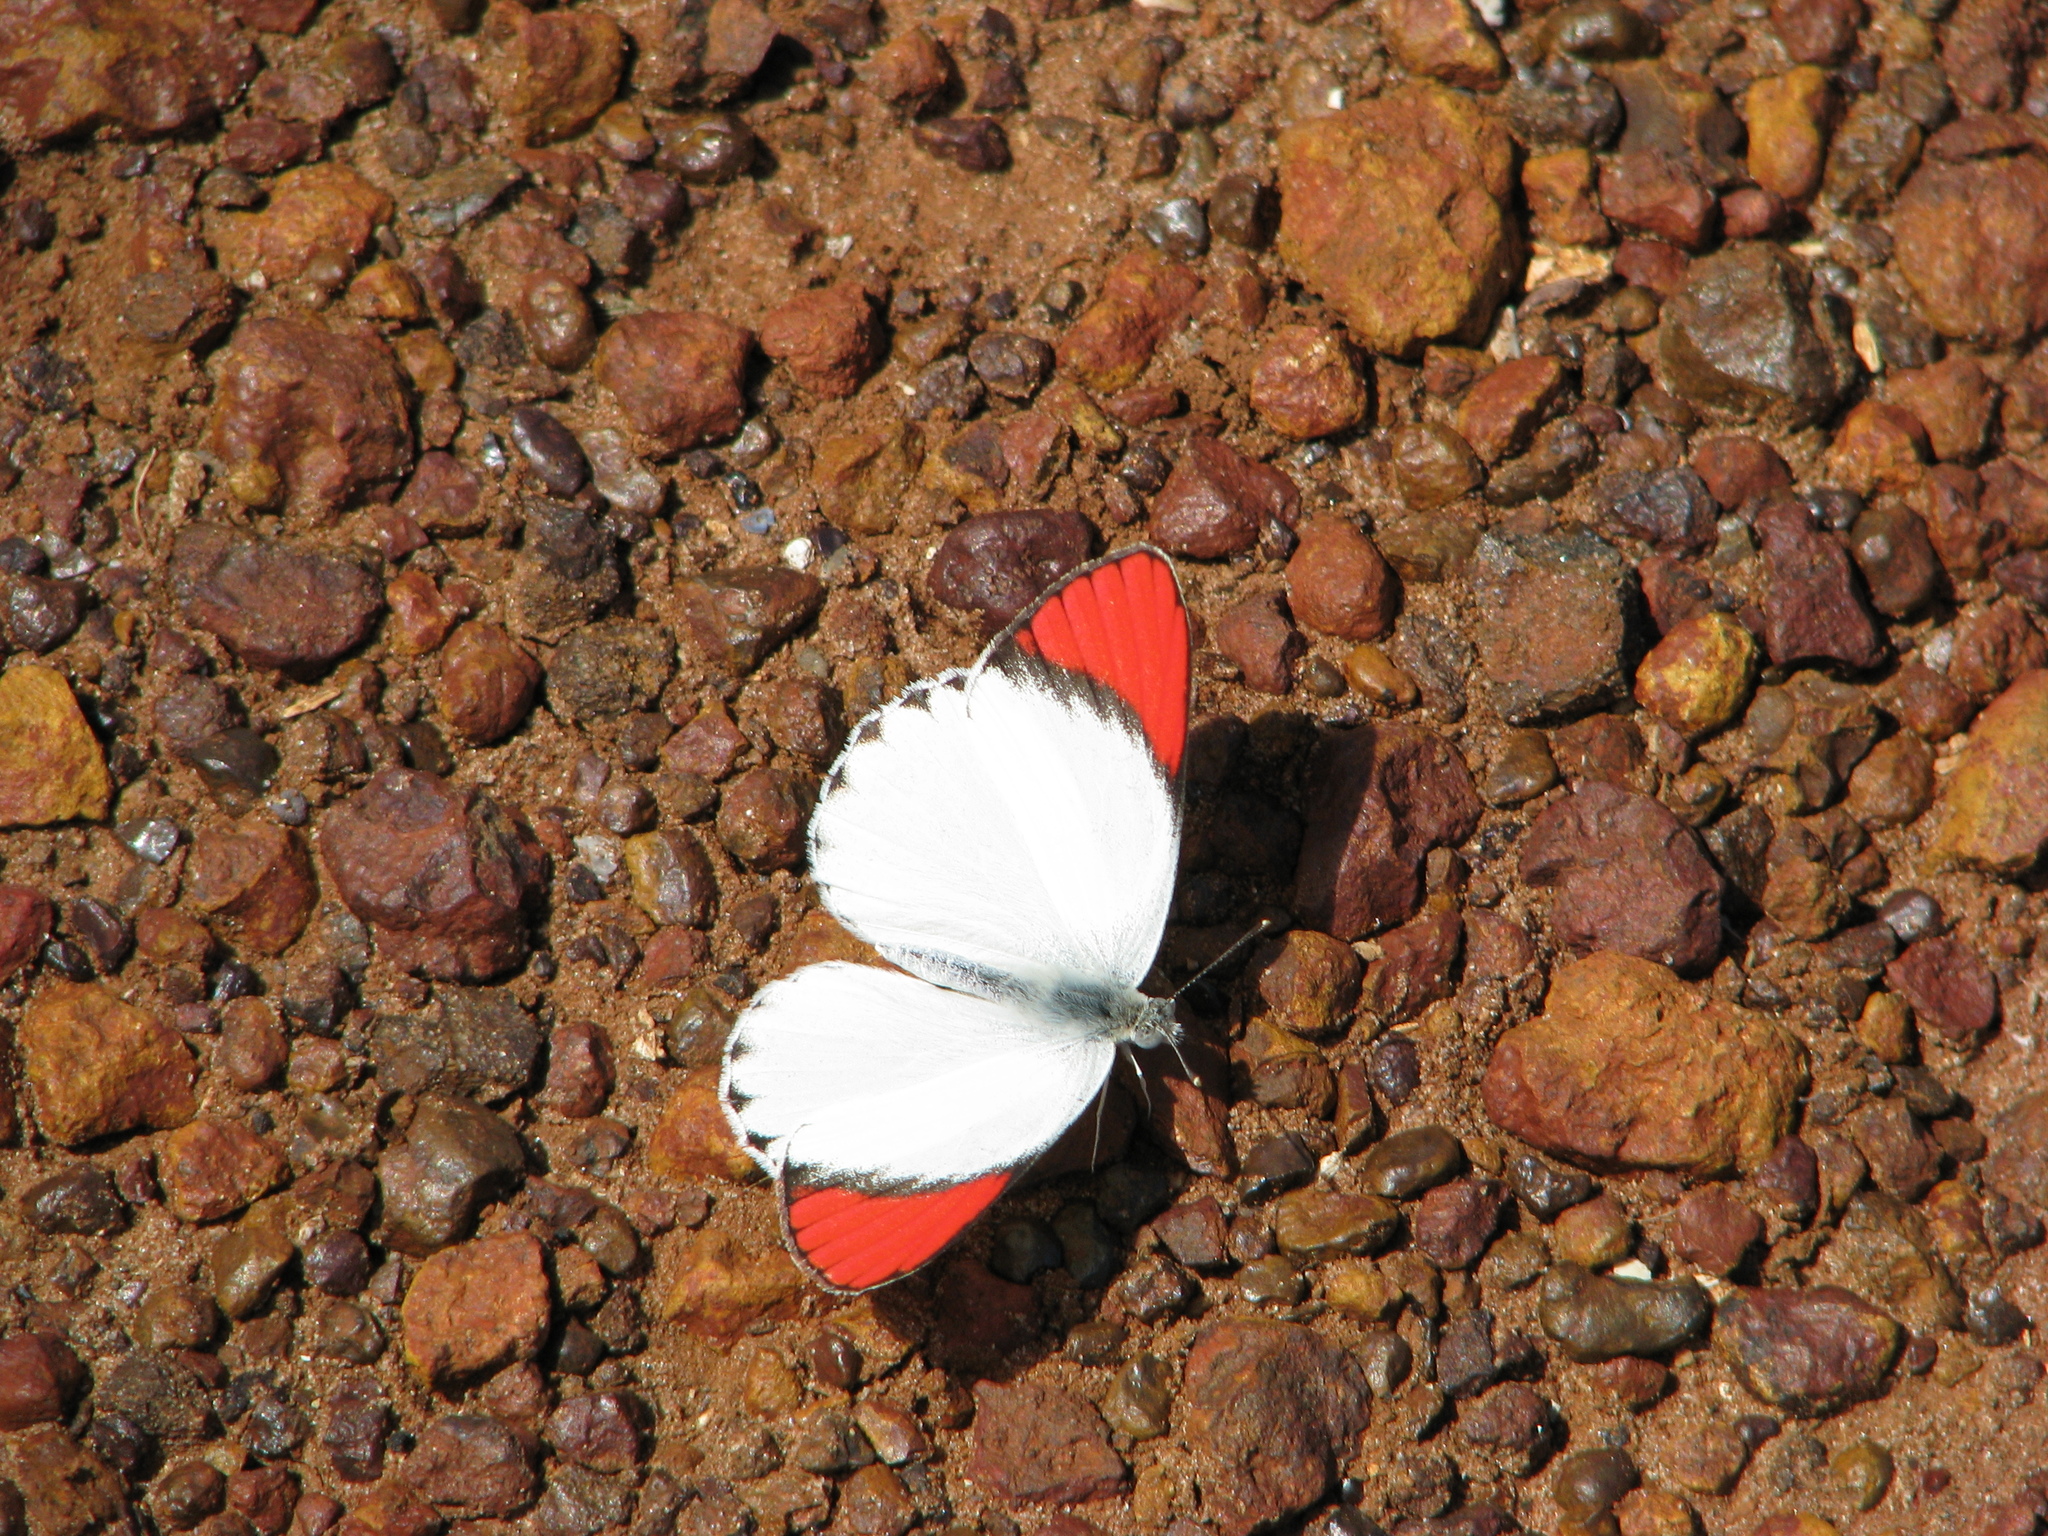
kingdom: Animalia
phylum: Arthropoda
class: Insecta
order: Lepidoptera
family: Pieridae
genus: Colotis
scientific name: Colotis danae
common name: Crimson tip
